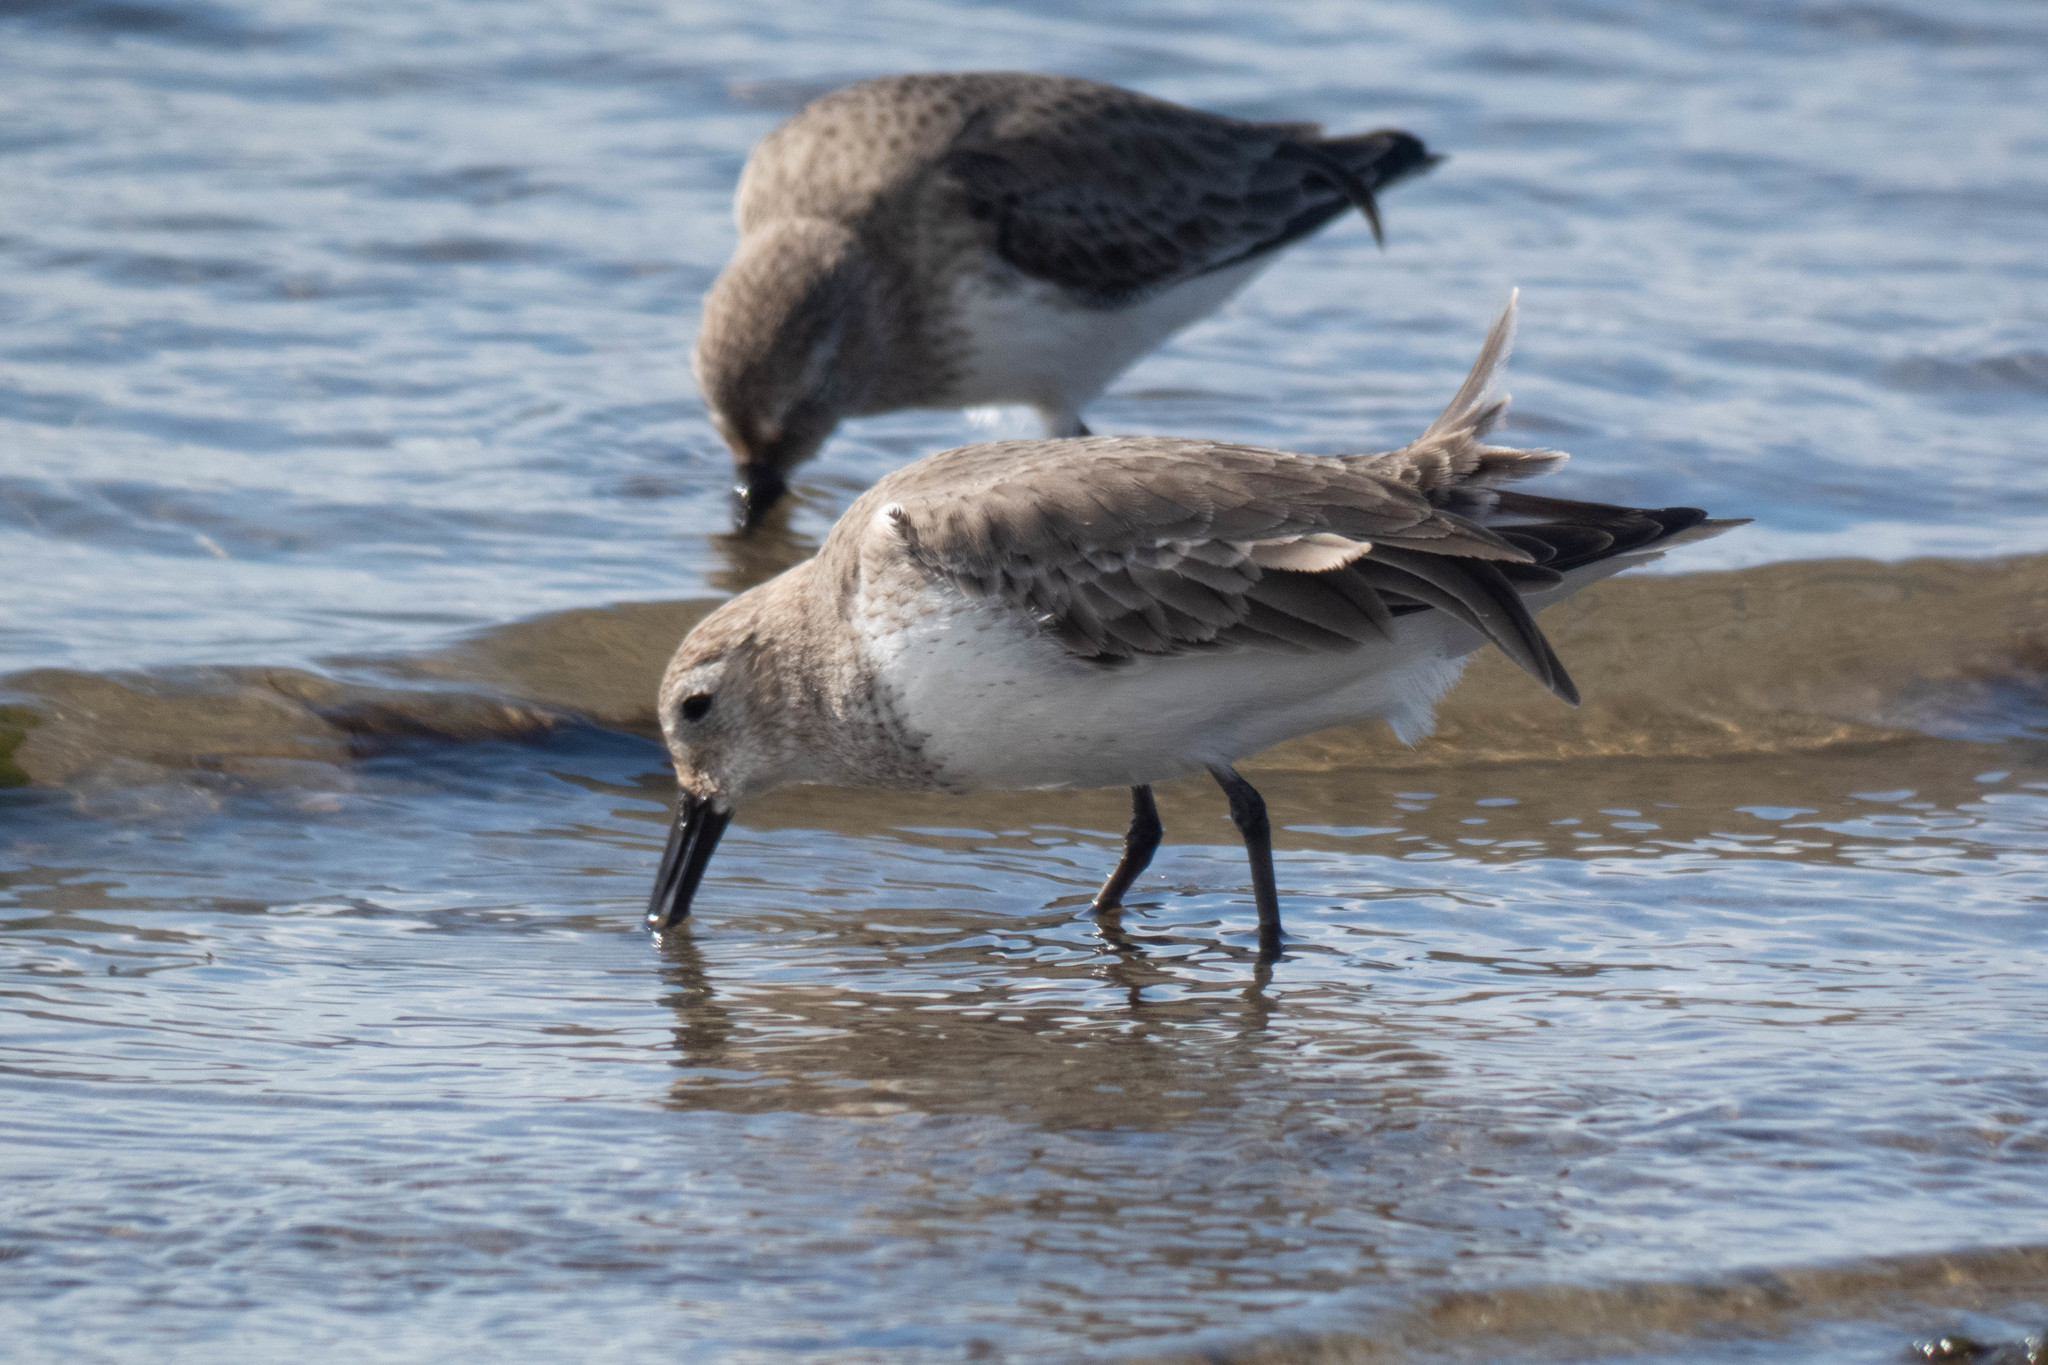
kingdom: Animalia
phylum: Chordata
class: Aves
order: Charadriiformes
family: Scolopacidae
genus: Calidris
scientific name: Calidris alpina
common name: Dunlin
